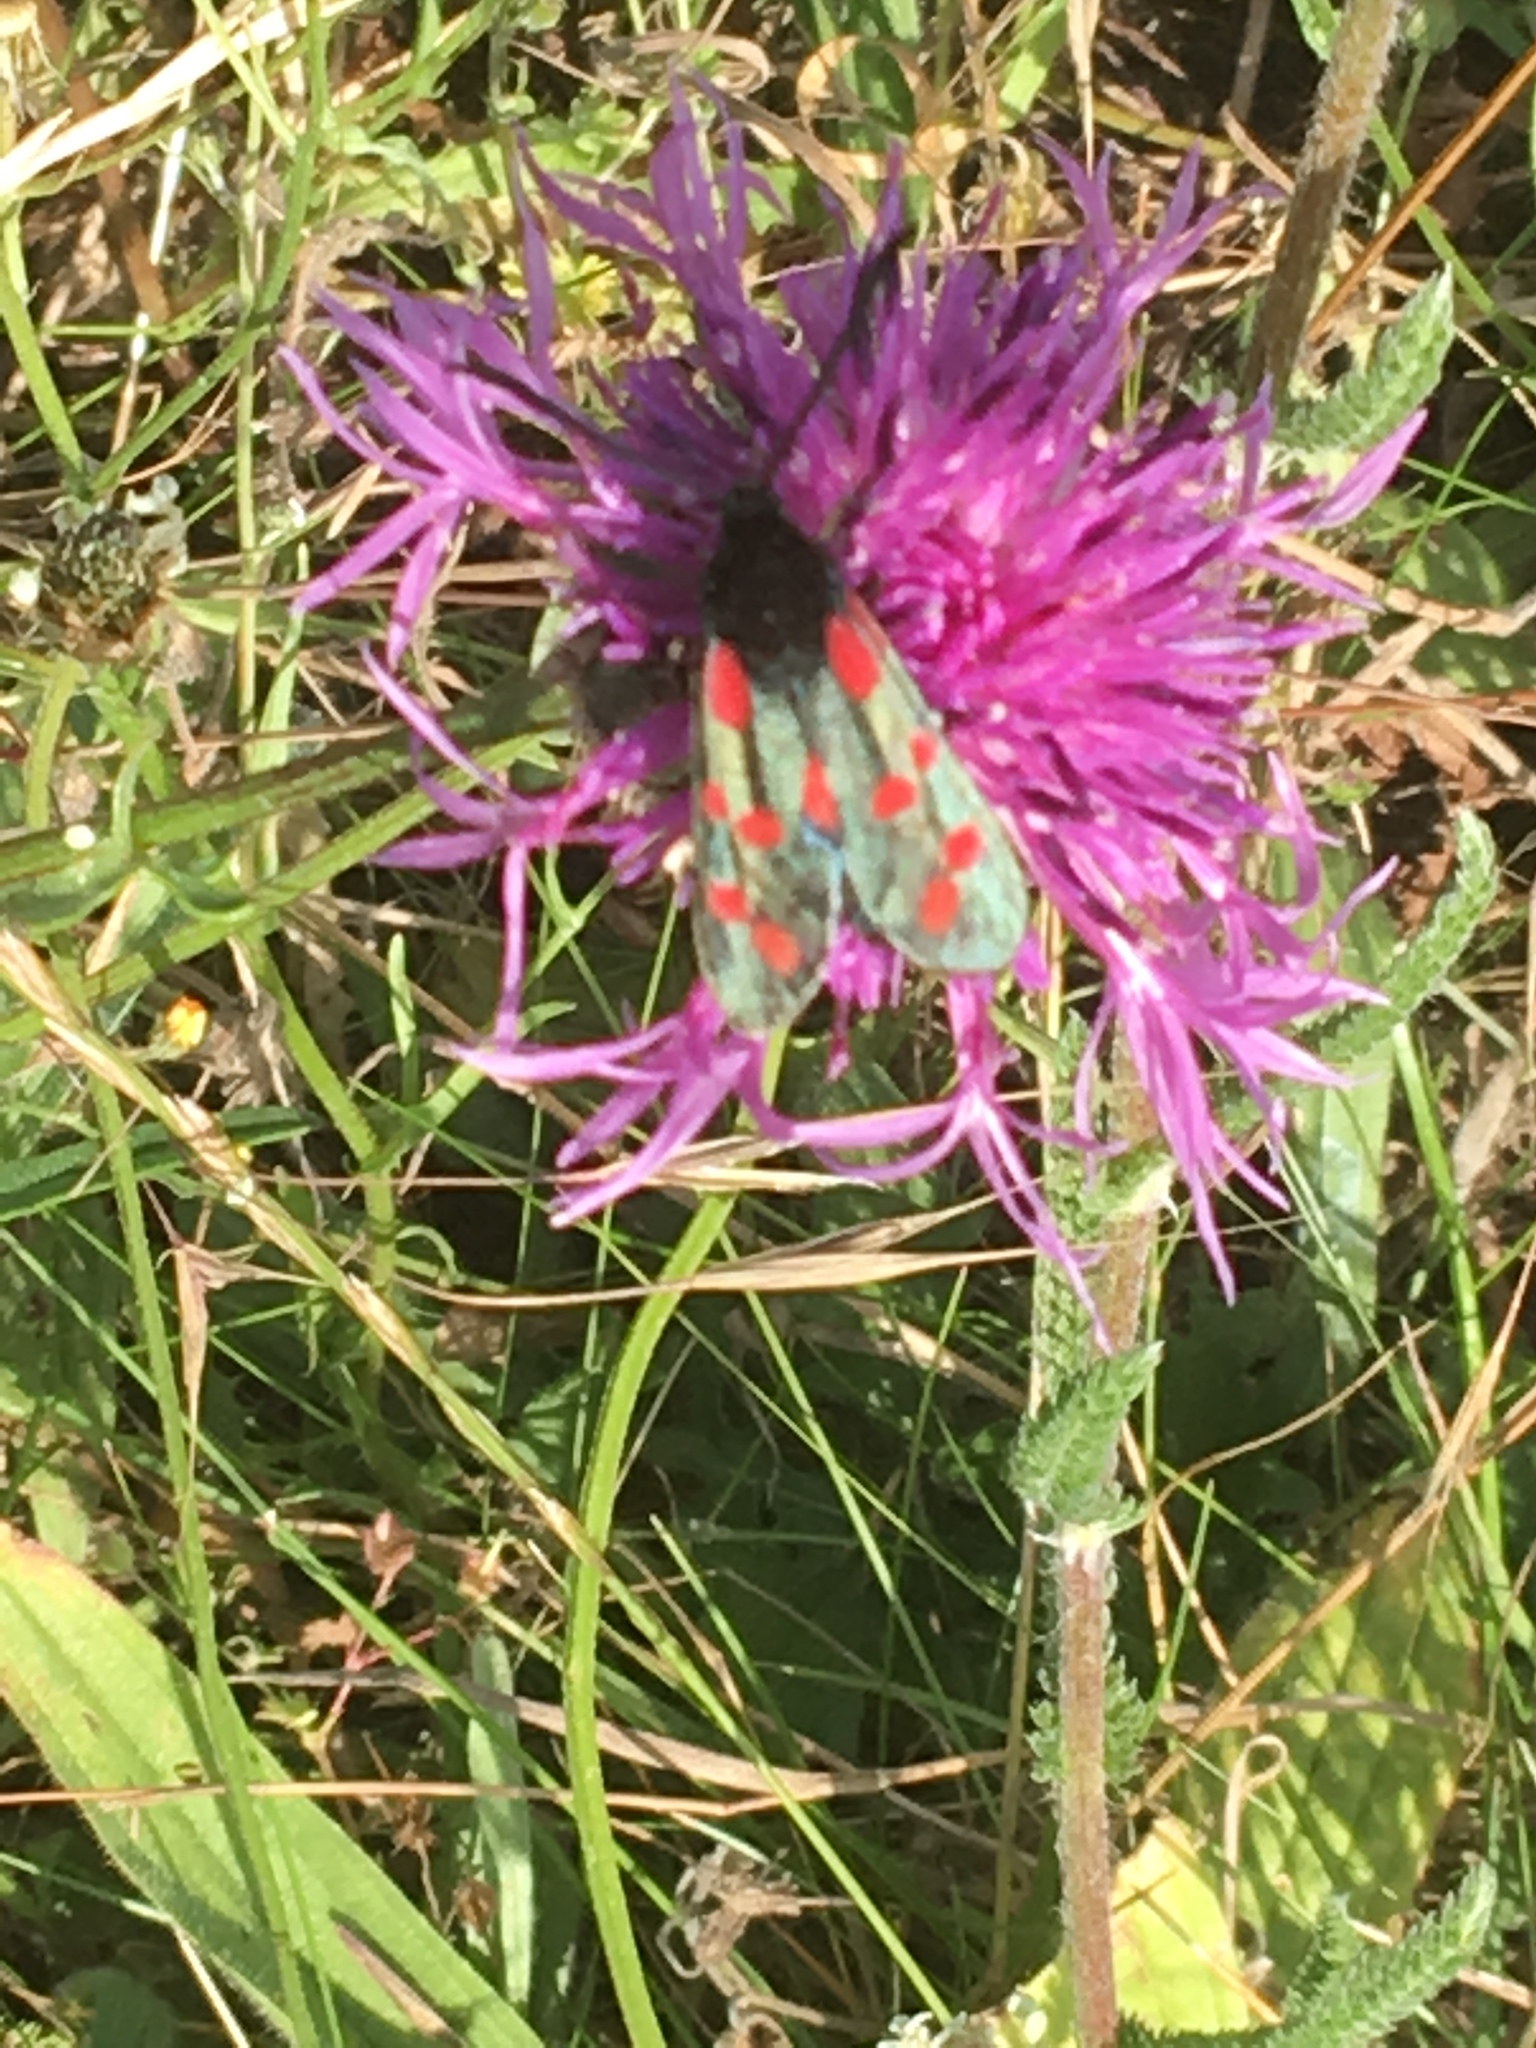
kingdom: Animalia
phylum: Arthropoda
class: Insecta
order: Lepidoptera
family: Zygaenidae
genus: Zygaena
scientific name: Zygaena filipendulae
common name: Six-spot burnet
